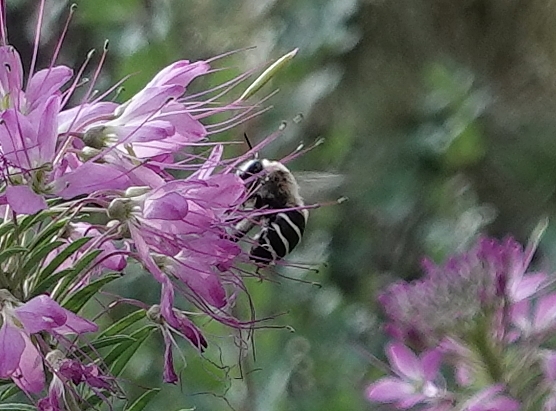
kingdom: Animalia
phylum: Arthropoda
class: Insecta
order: Hymenoptera
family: Apidae
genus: Anthophora
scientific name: Anthophora walshii
